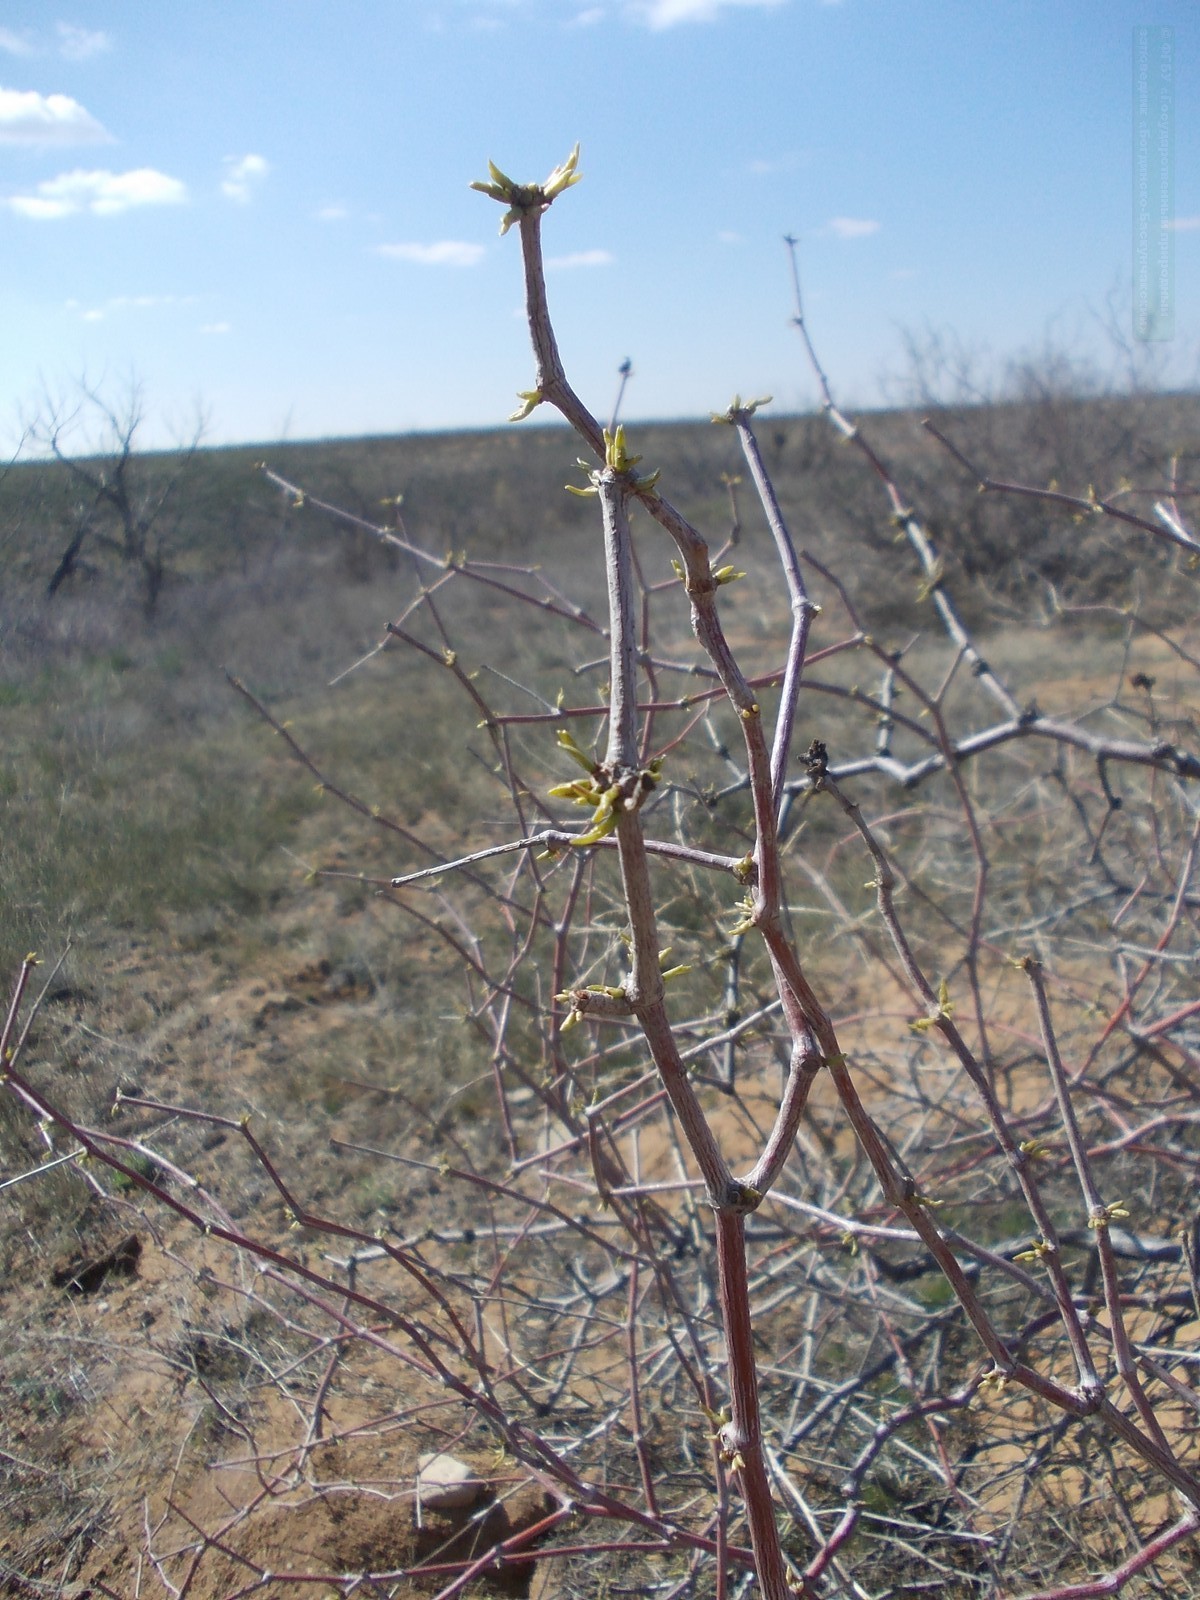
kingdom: Plantae
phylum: Tracheophyta
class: Magnoliopsida
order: Caryophyllales
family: Polygonaceae
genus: Calligonum
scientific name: Calligonum aphyllum
